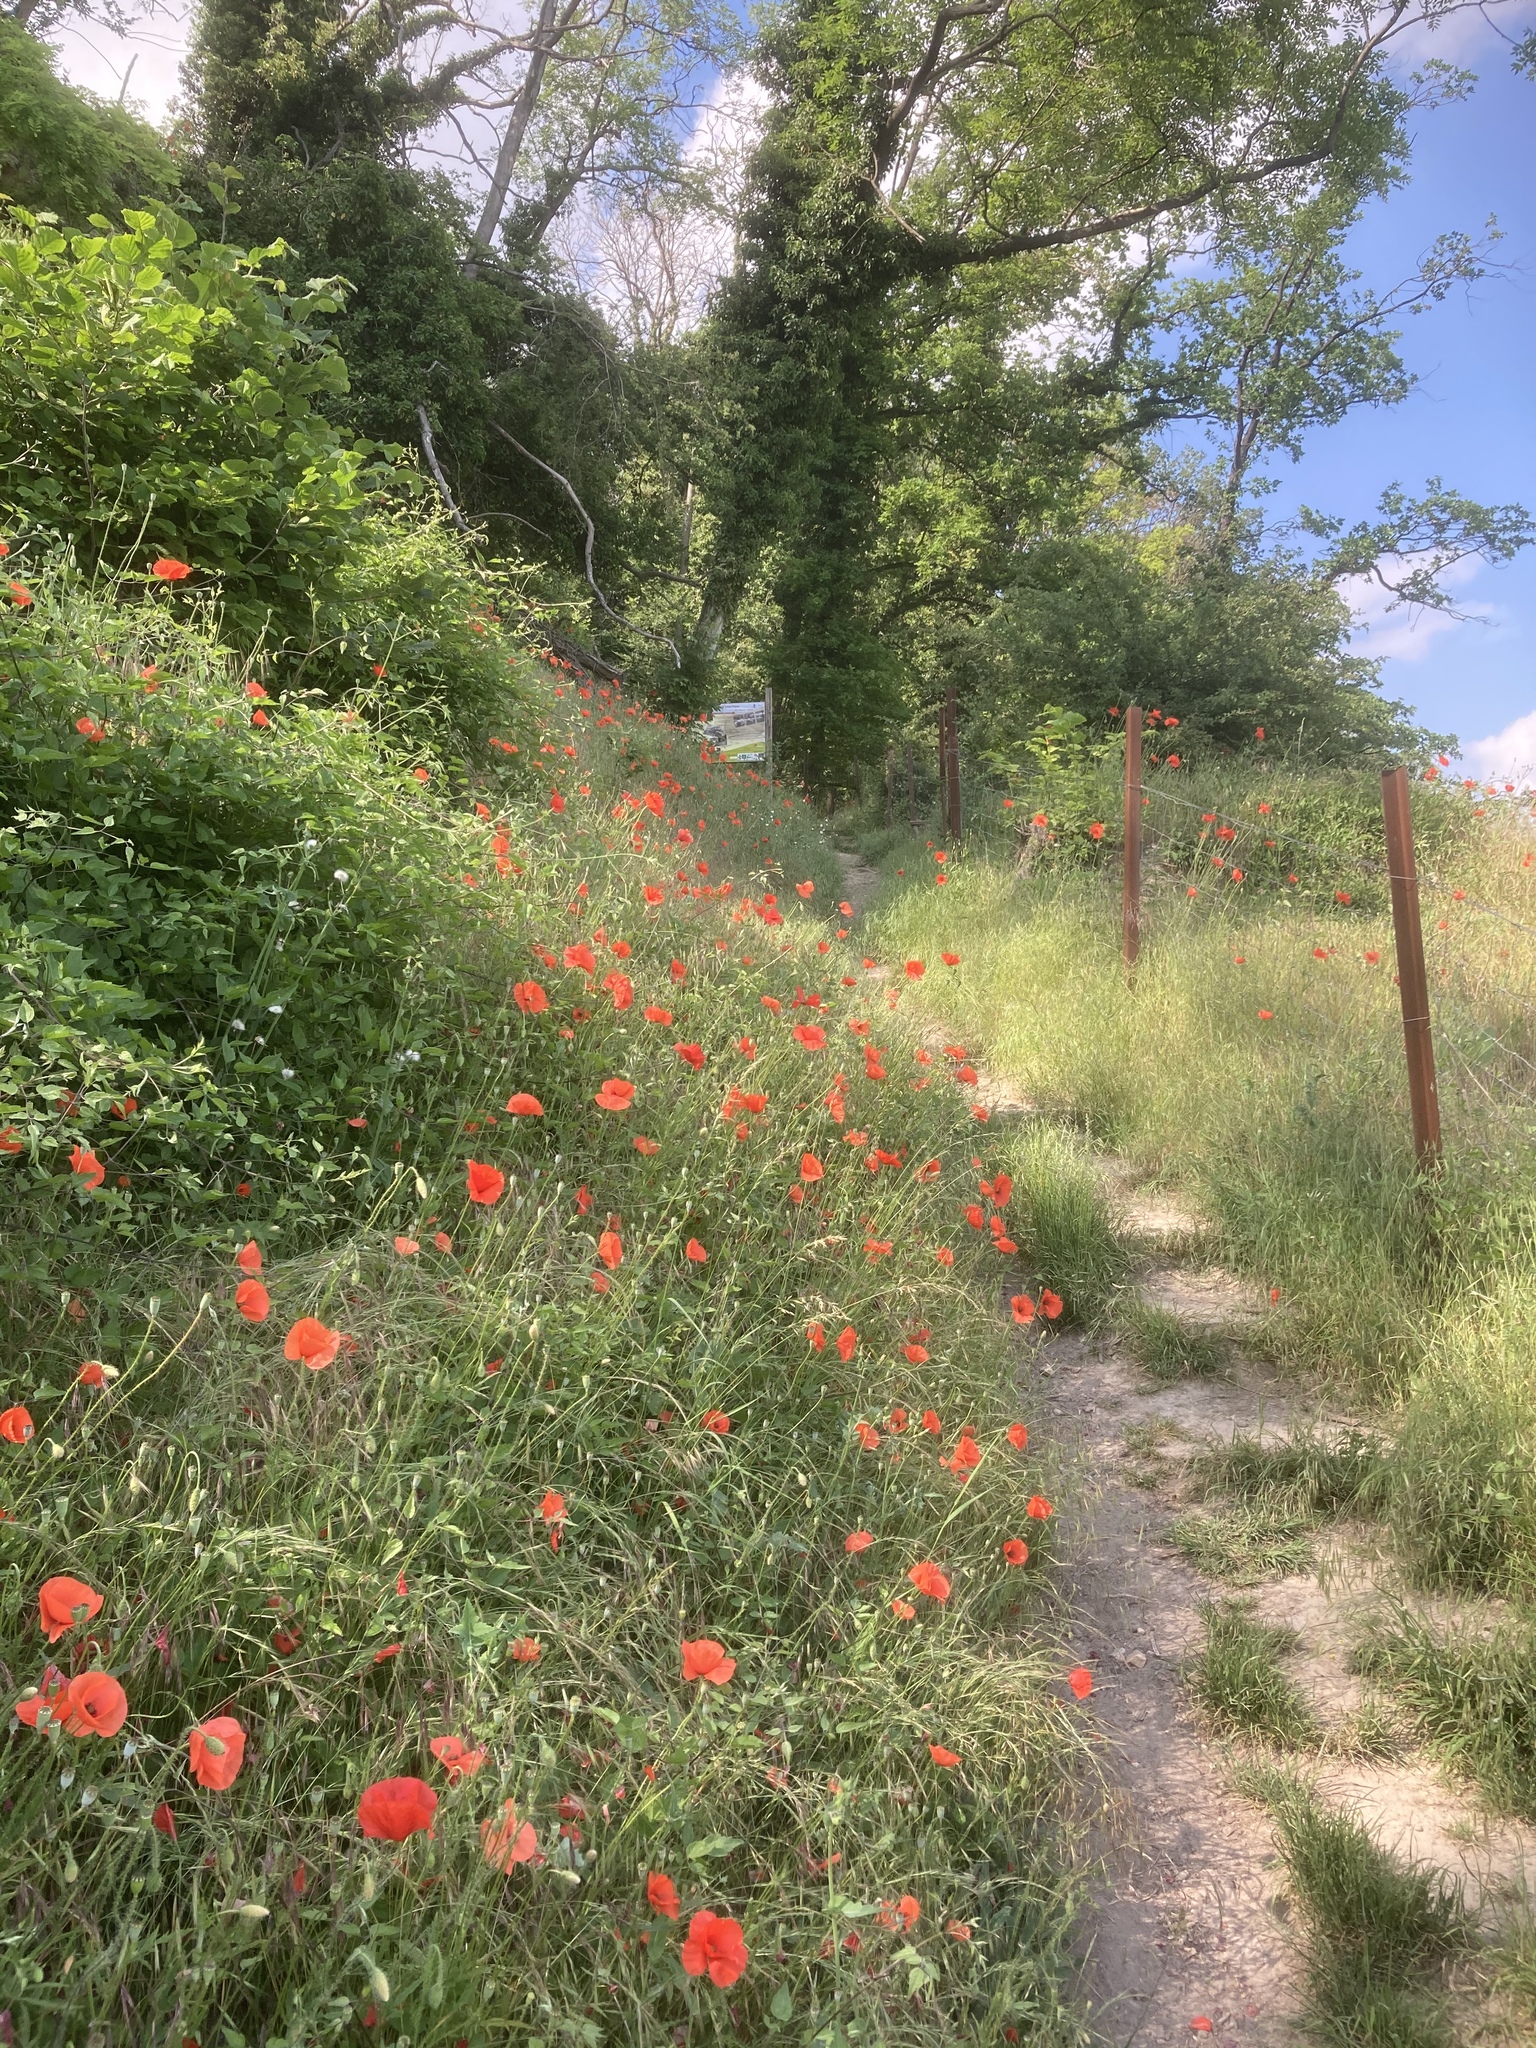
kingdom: Plantae
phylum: Tracheophyta
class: Magnoliopsida
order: Ranunculales
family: Papaveraceae
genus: Papaver
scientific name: Papaver rhoeas
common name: Corn poppy
